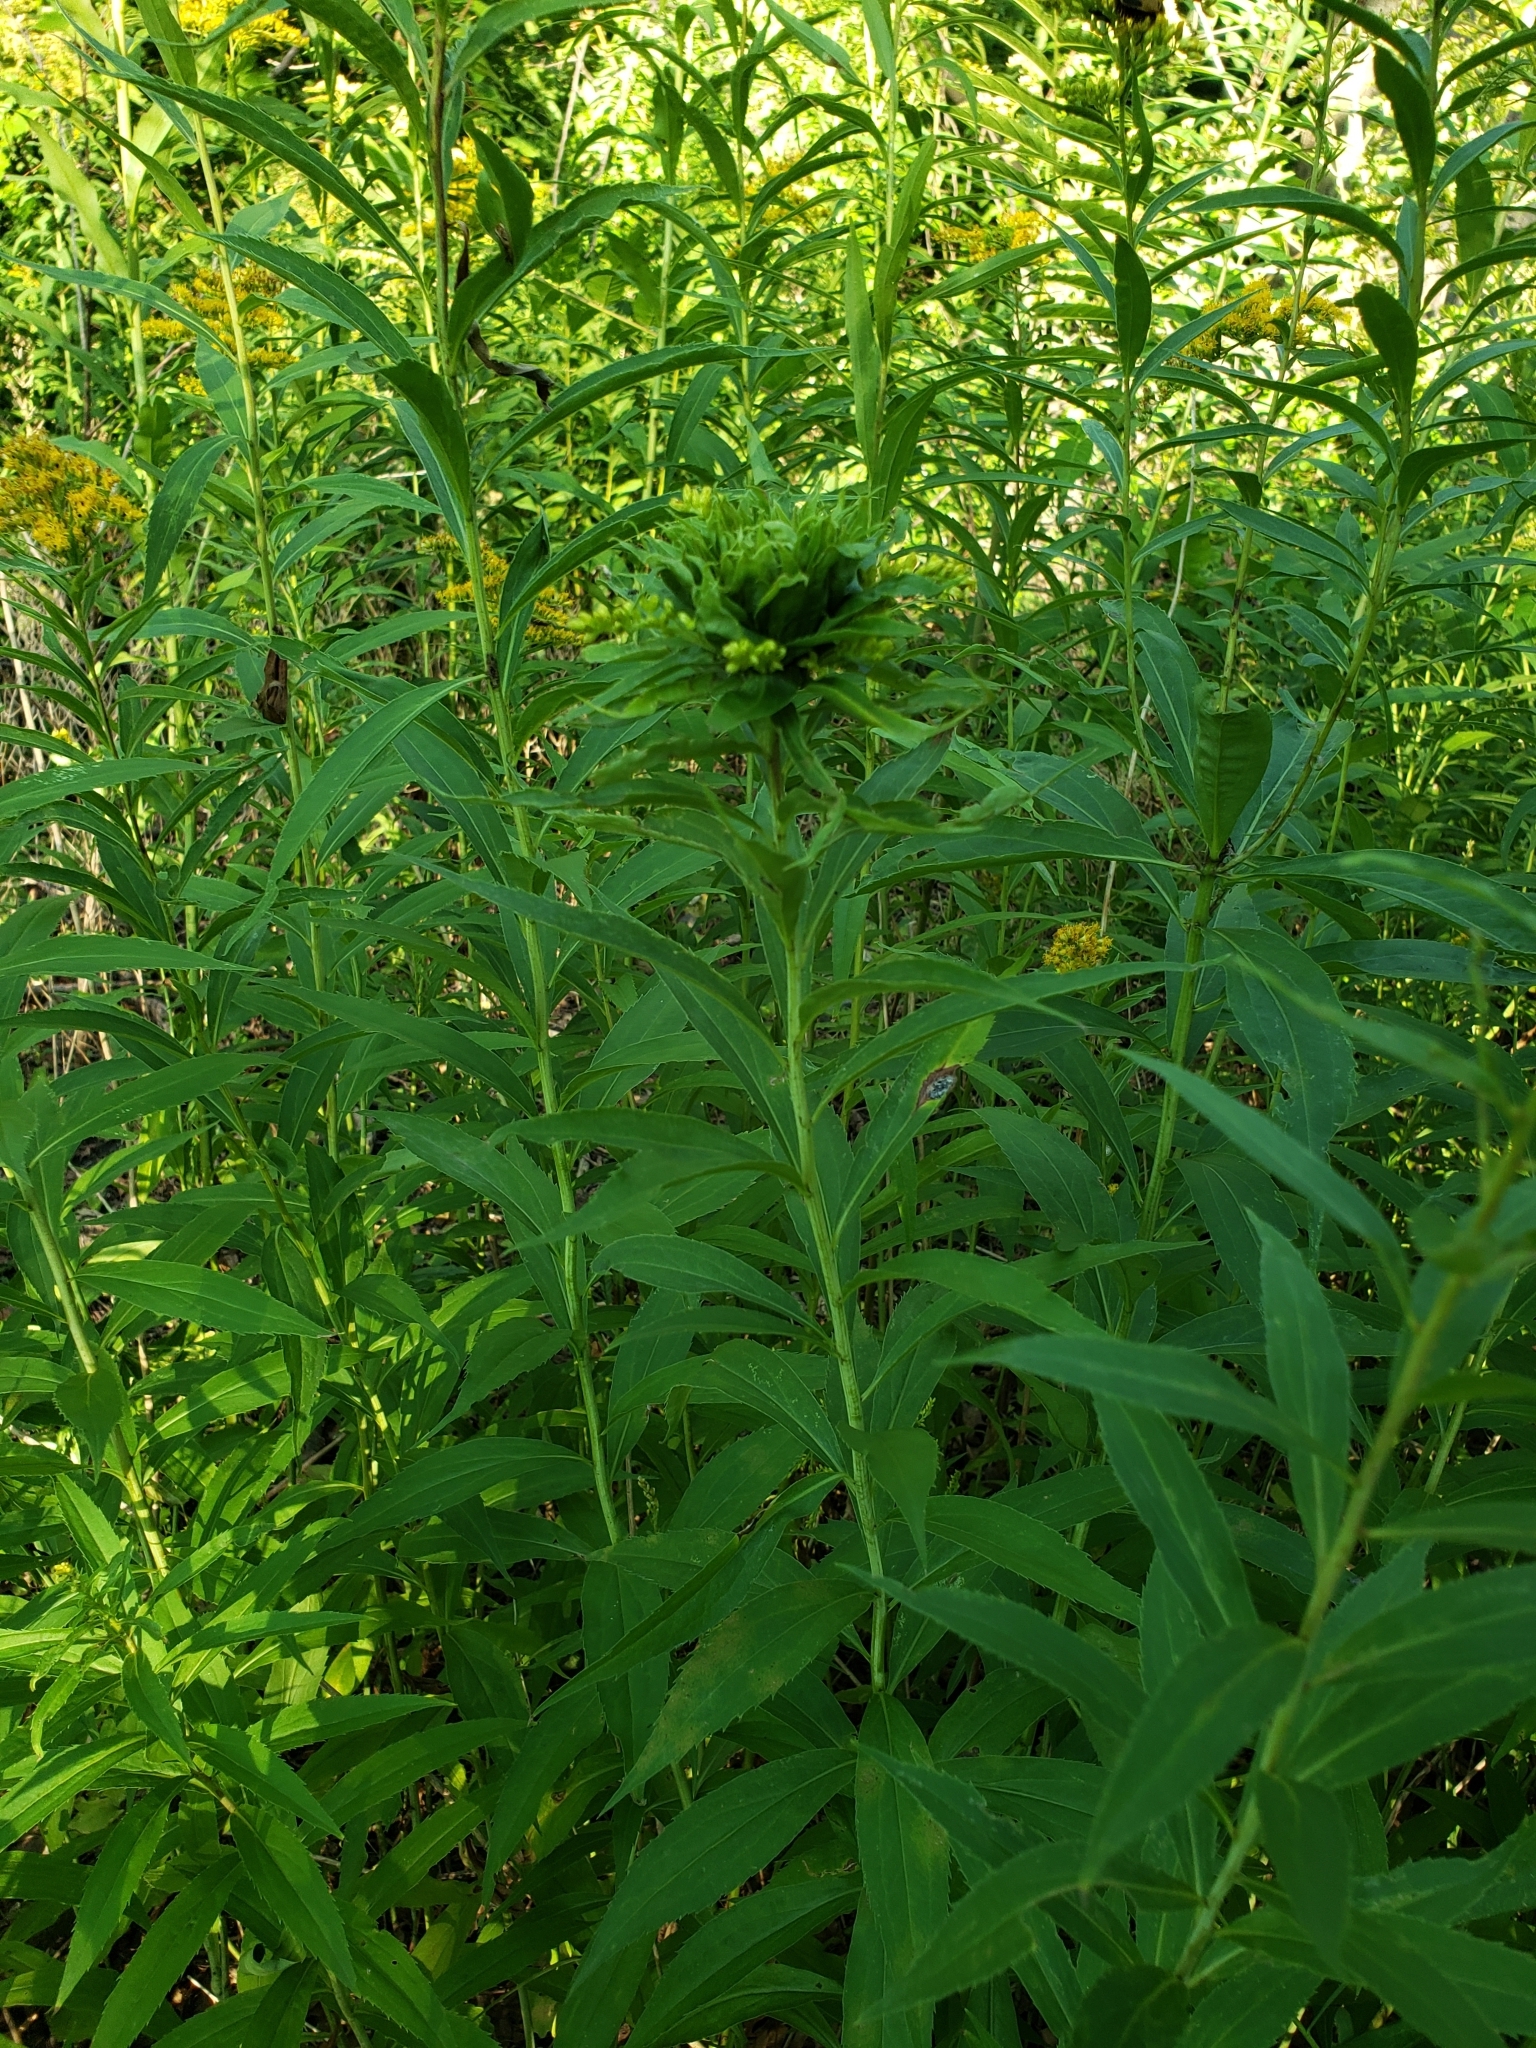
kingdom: Plantae
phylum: Tracheophyta
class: Magnoliopsida
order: Asterales
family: Asteraceae
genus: Solidago
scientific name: Solidago gigantea
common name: Giant goldenrod
